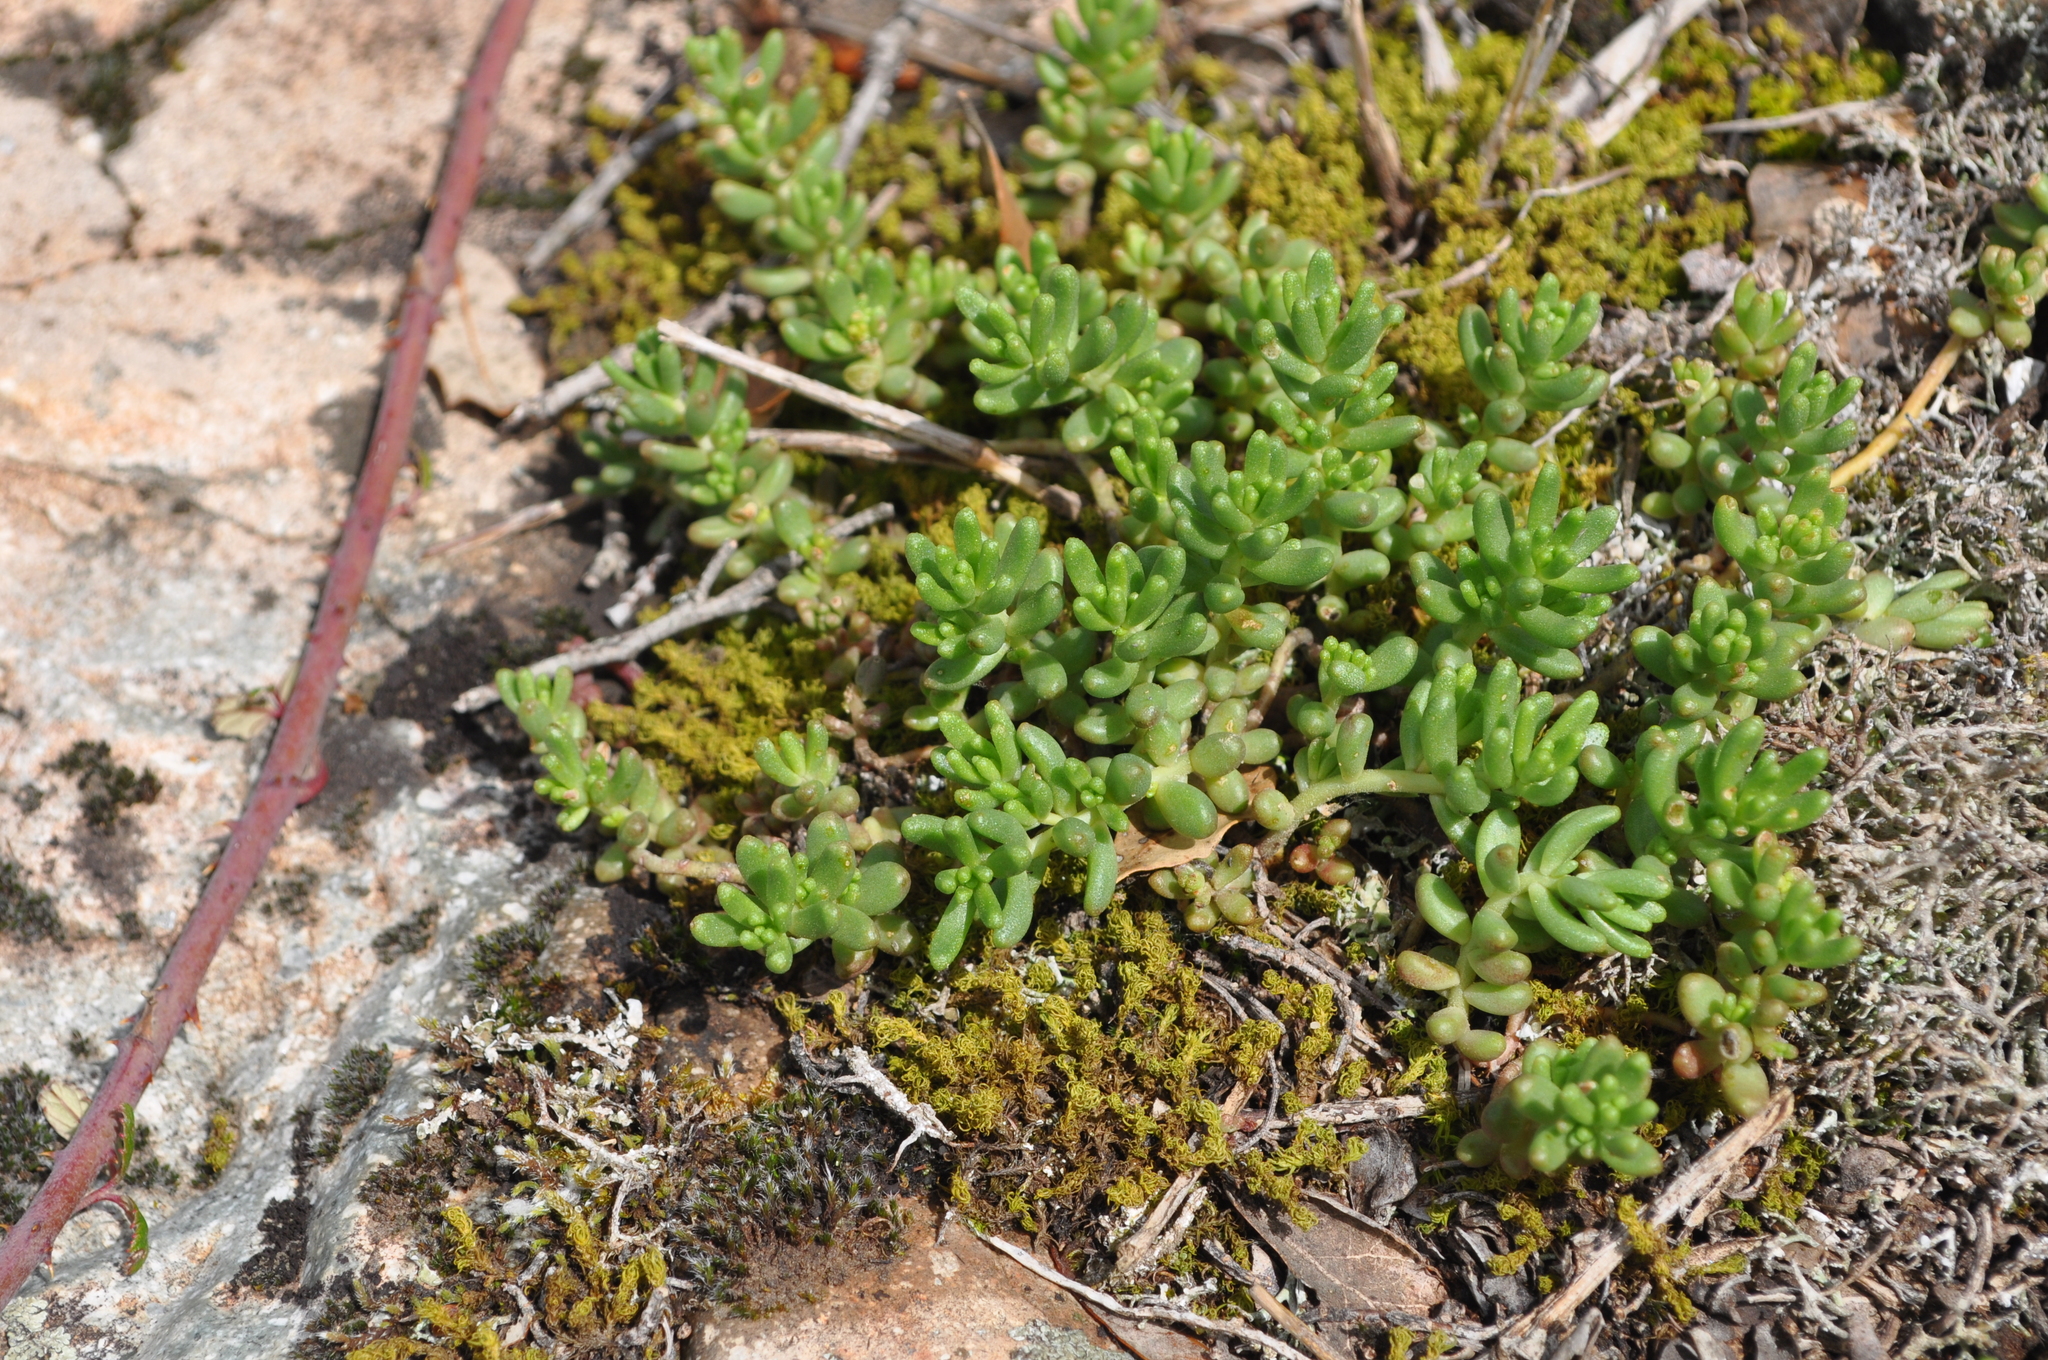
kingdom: Plantae
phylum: Tracheophyta
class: Magnoliopsida
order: Saxifragales
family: Crassulaceae
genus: Sedum
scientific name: Sedum album
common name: White stonecrop
